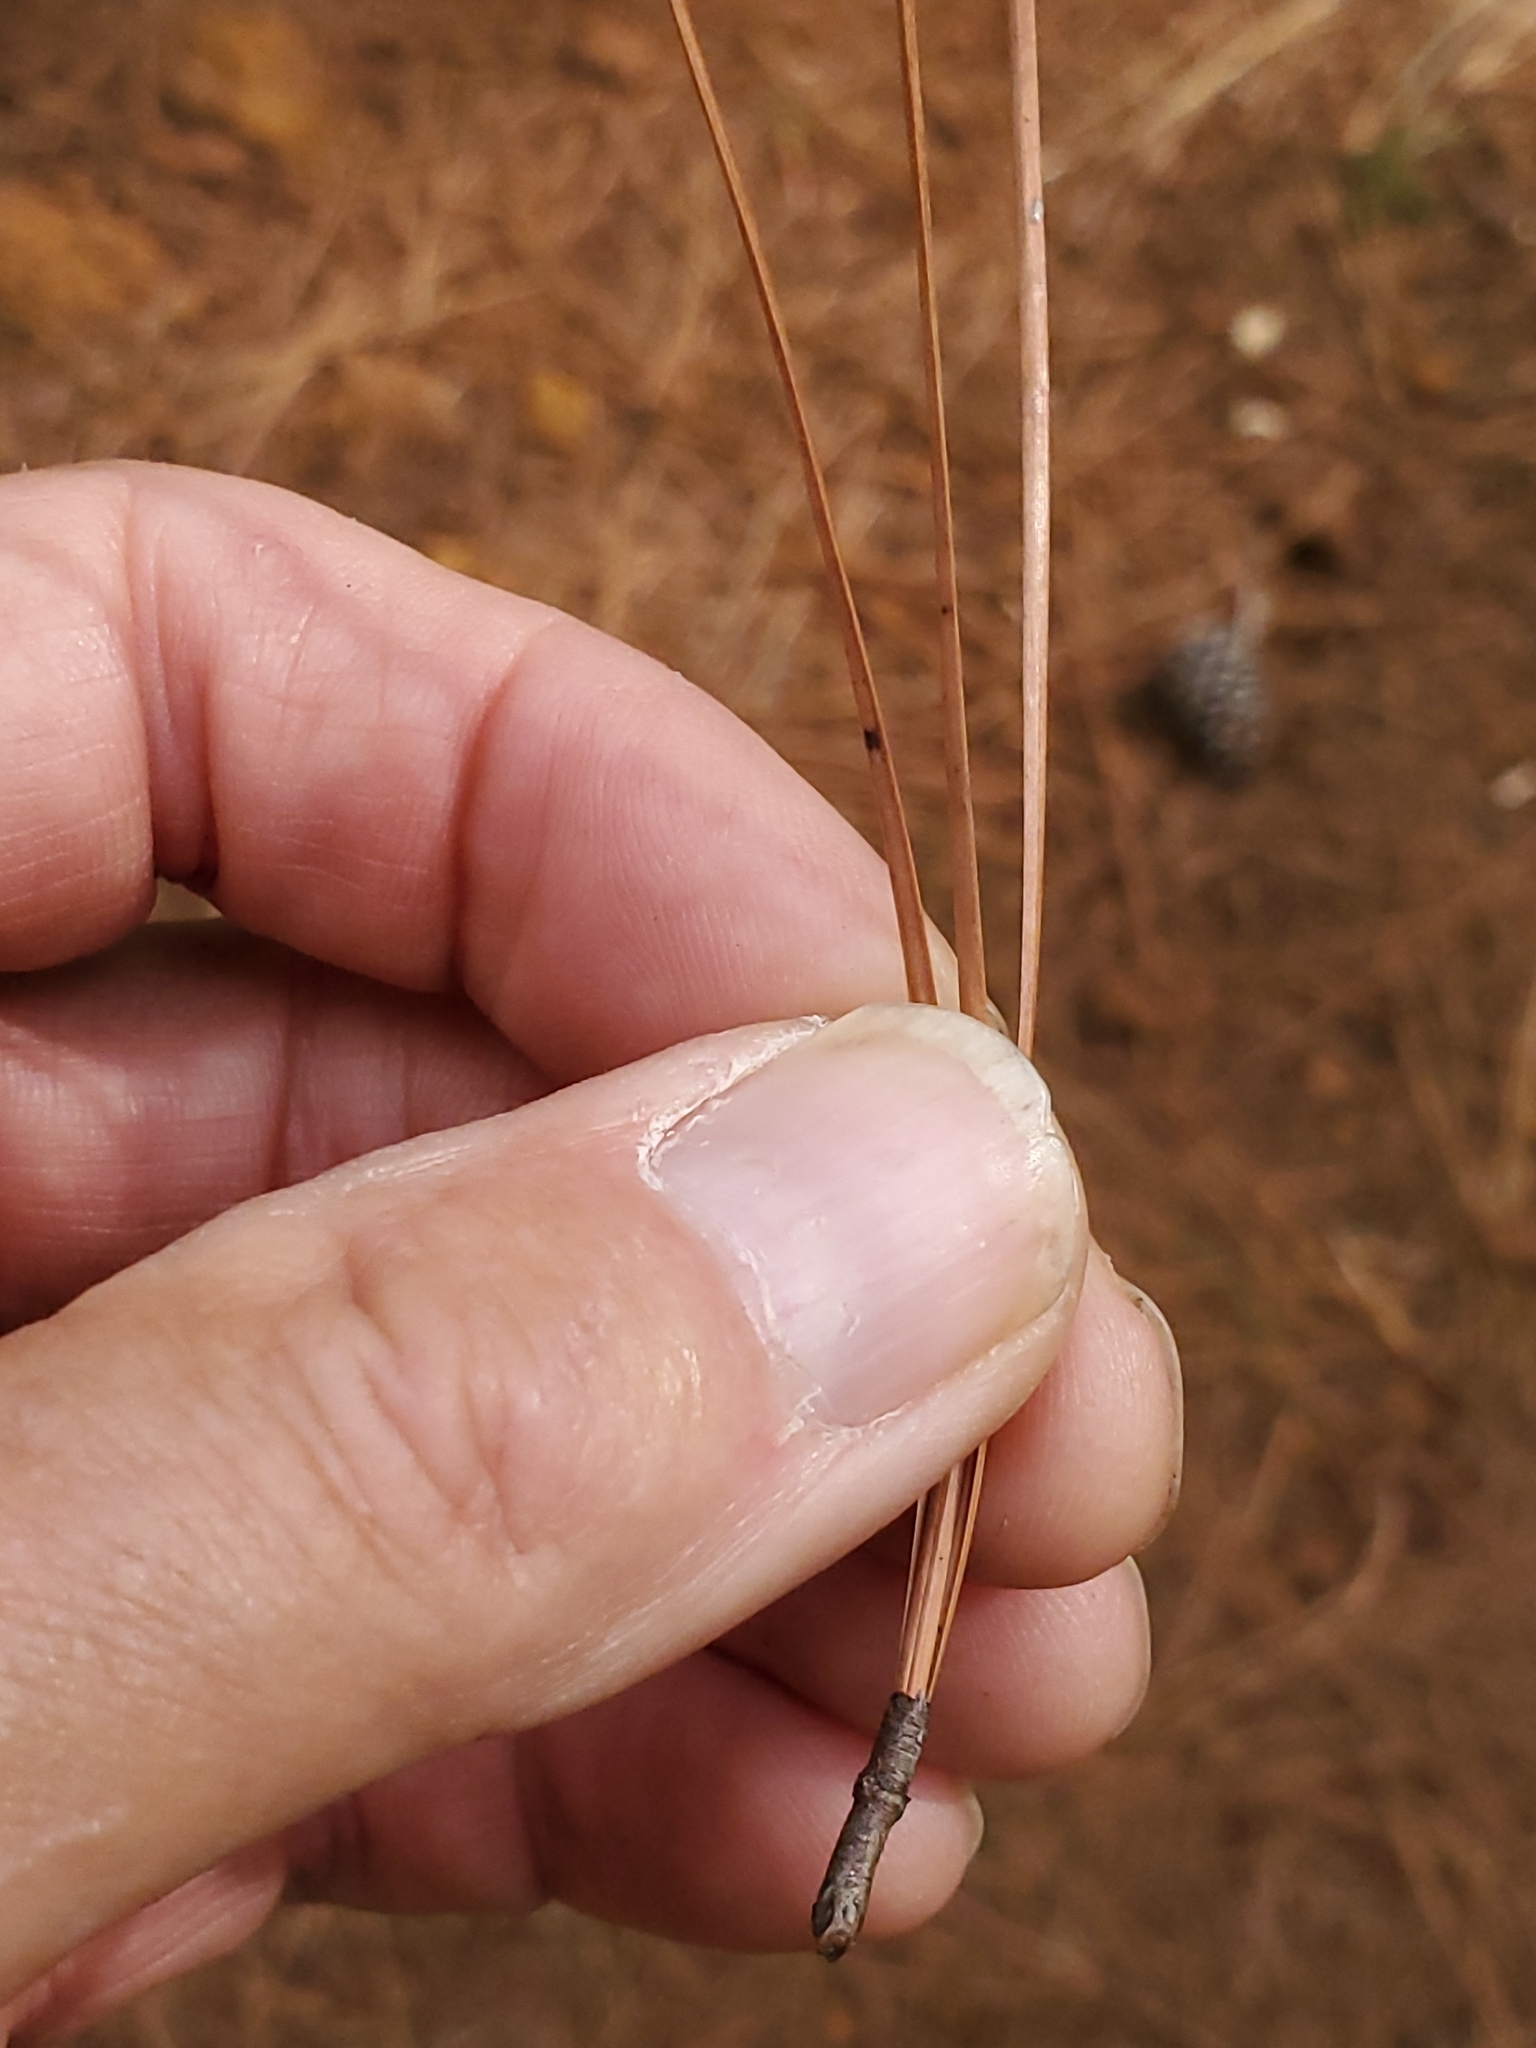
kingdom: Plantae
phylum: Tracheophyta
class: Pinopsida
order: Pinales
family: Pinaceae
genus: Pinus
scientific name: Pinus taeda
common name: Loblolly pine
